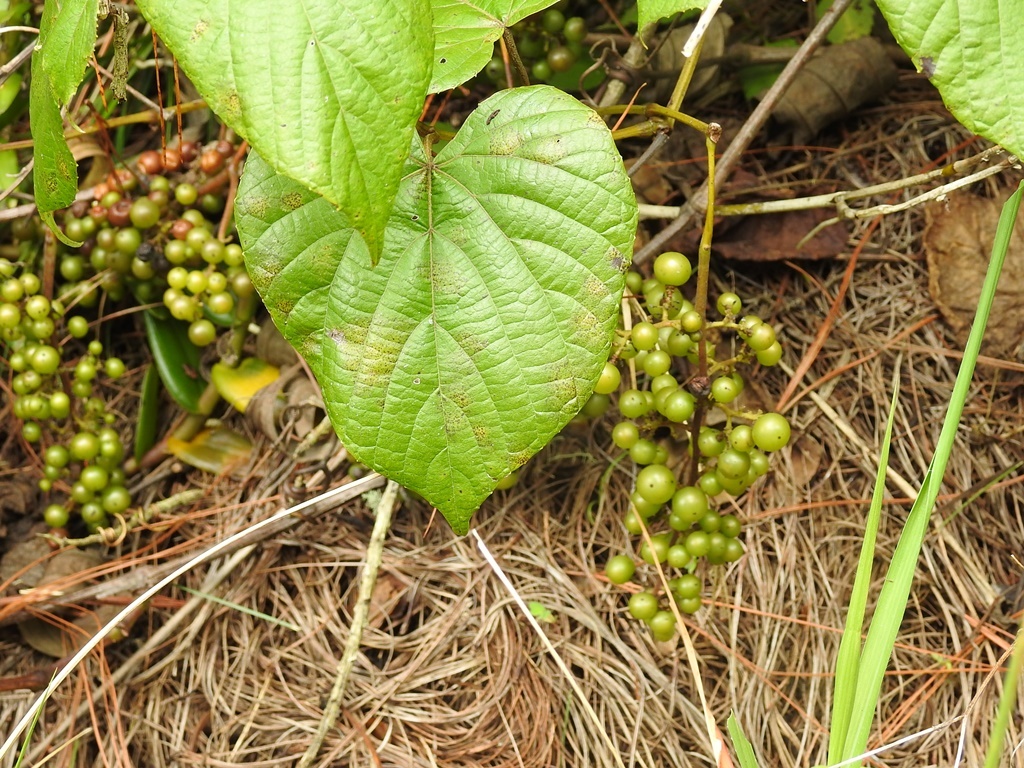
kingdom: Plantae
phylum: Tracheophyta
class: Magnoliopsida
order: Vitales
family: Vitaceae
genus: Vitis
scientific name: Vitis tiliifolia
